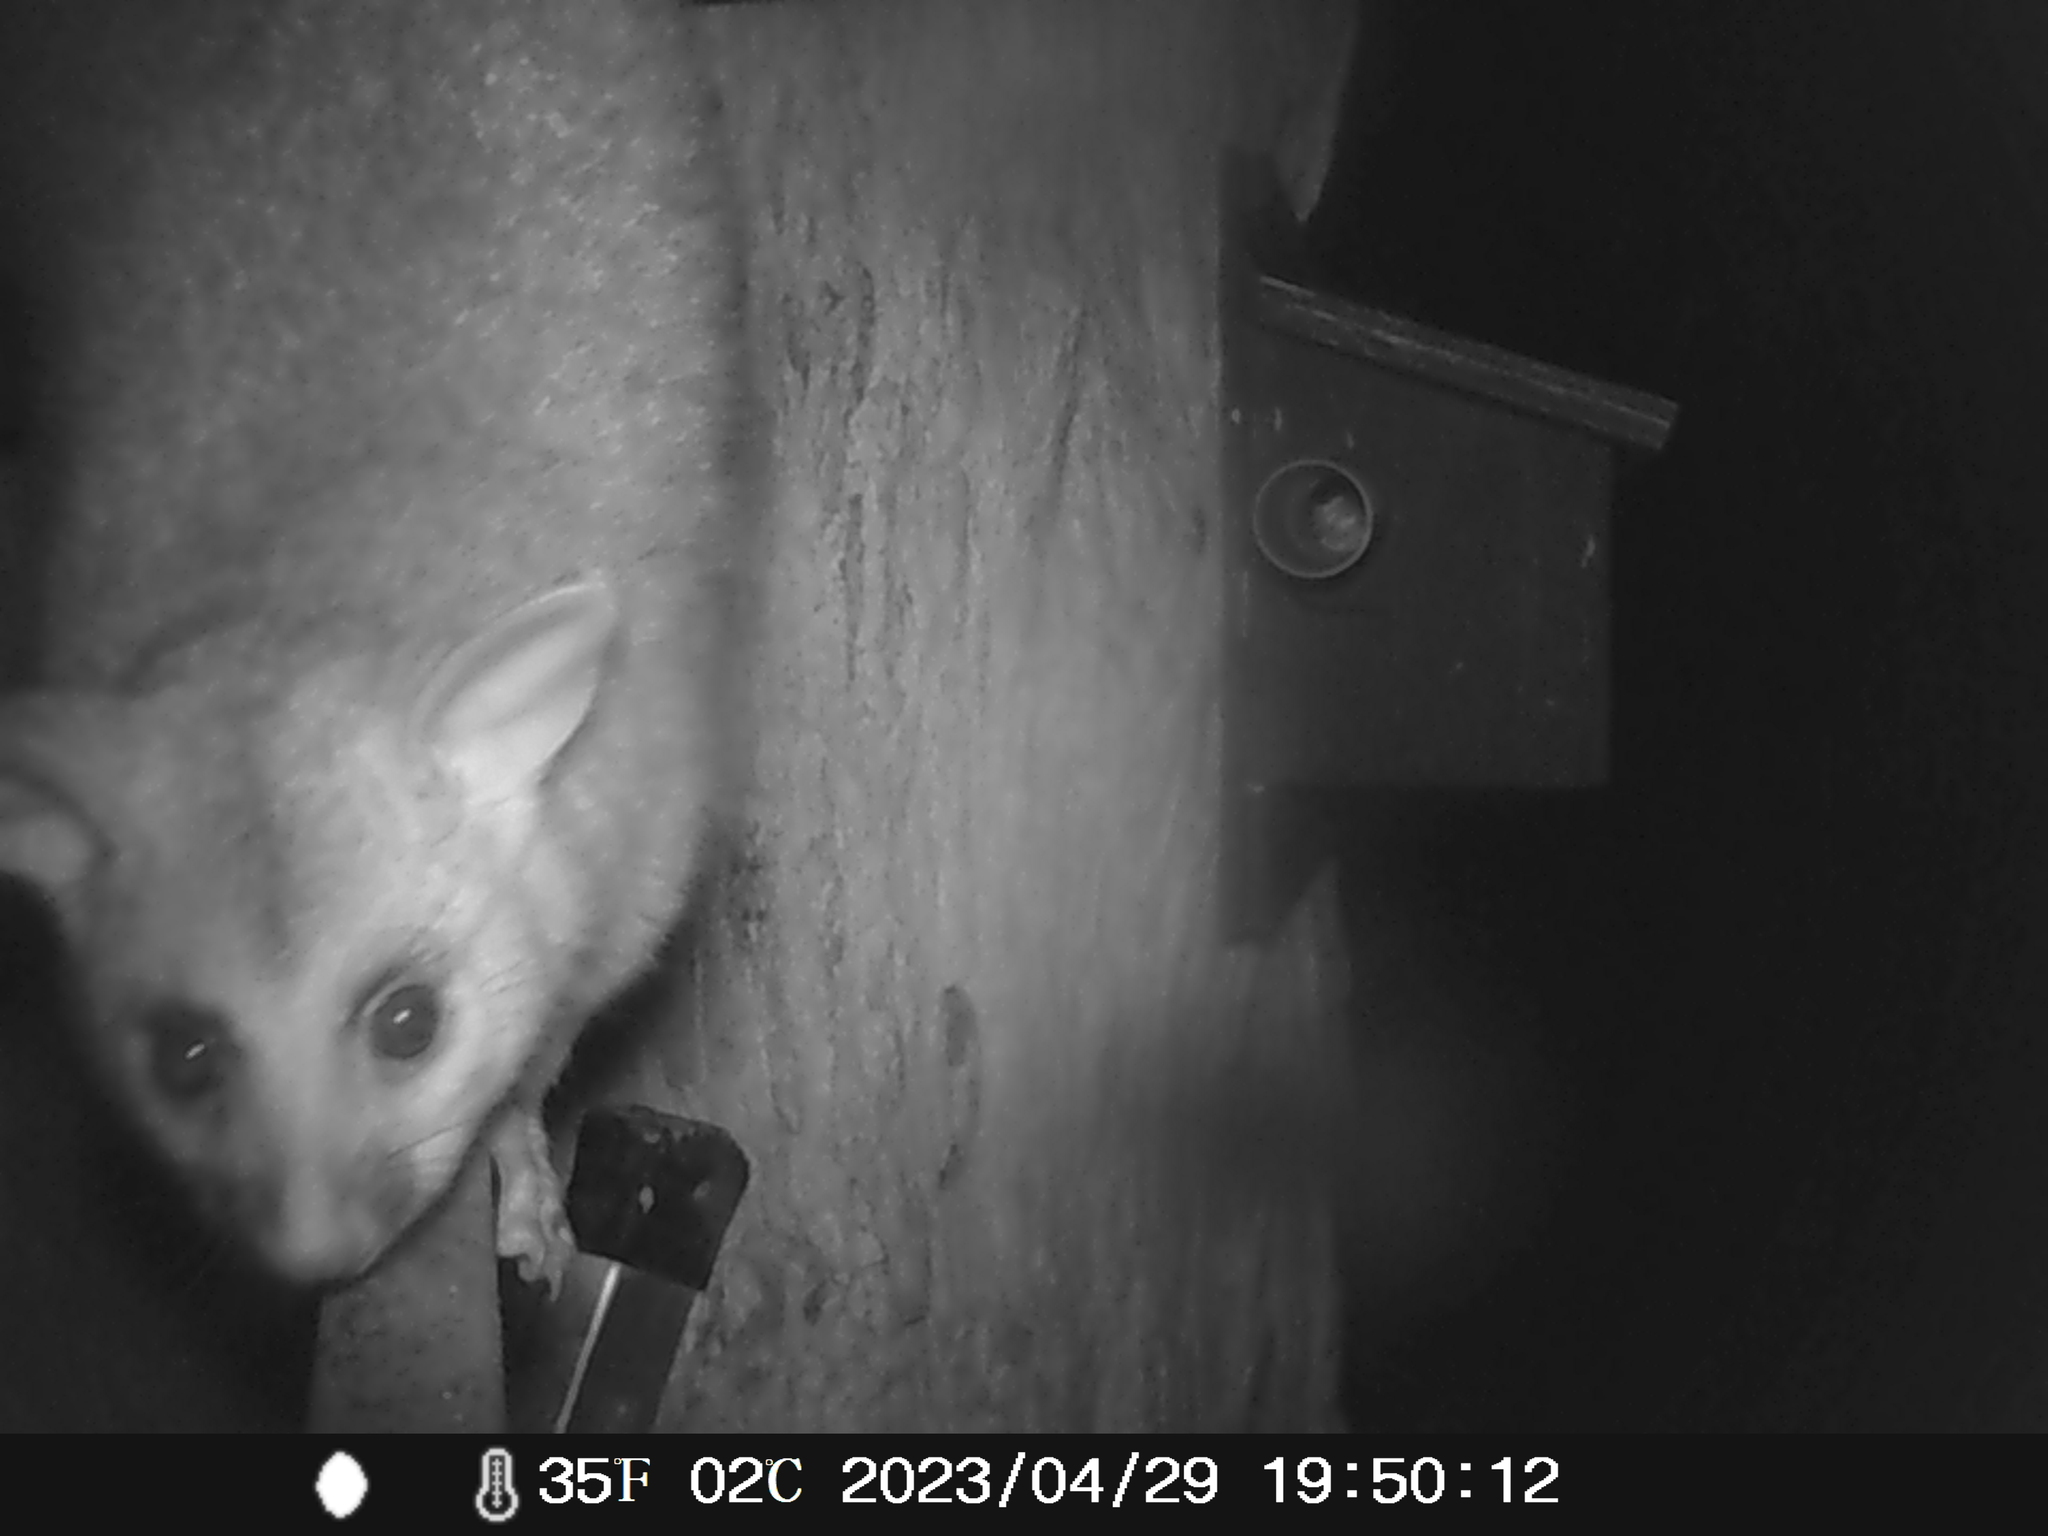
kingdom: Animalia
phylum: Chordata
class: Mammalia
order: Diprotodontia
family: Phalangeridae
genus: Trichosurus
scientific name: Trichosurus vulpecula
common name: Common brushtail
